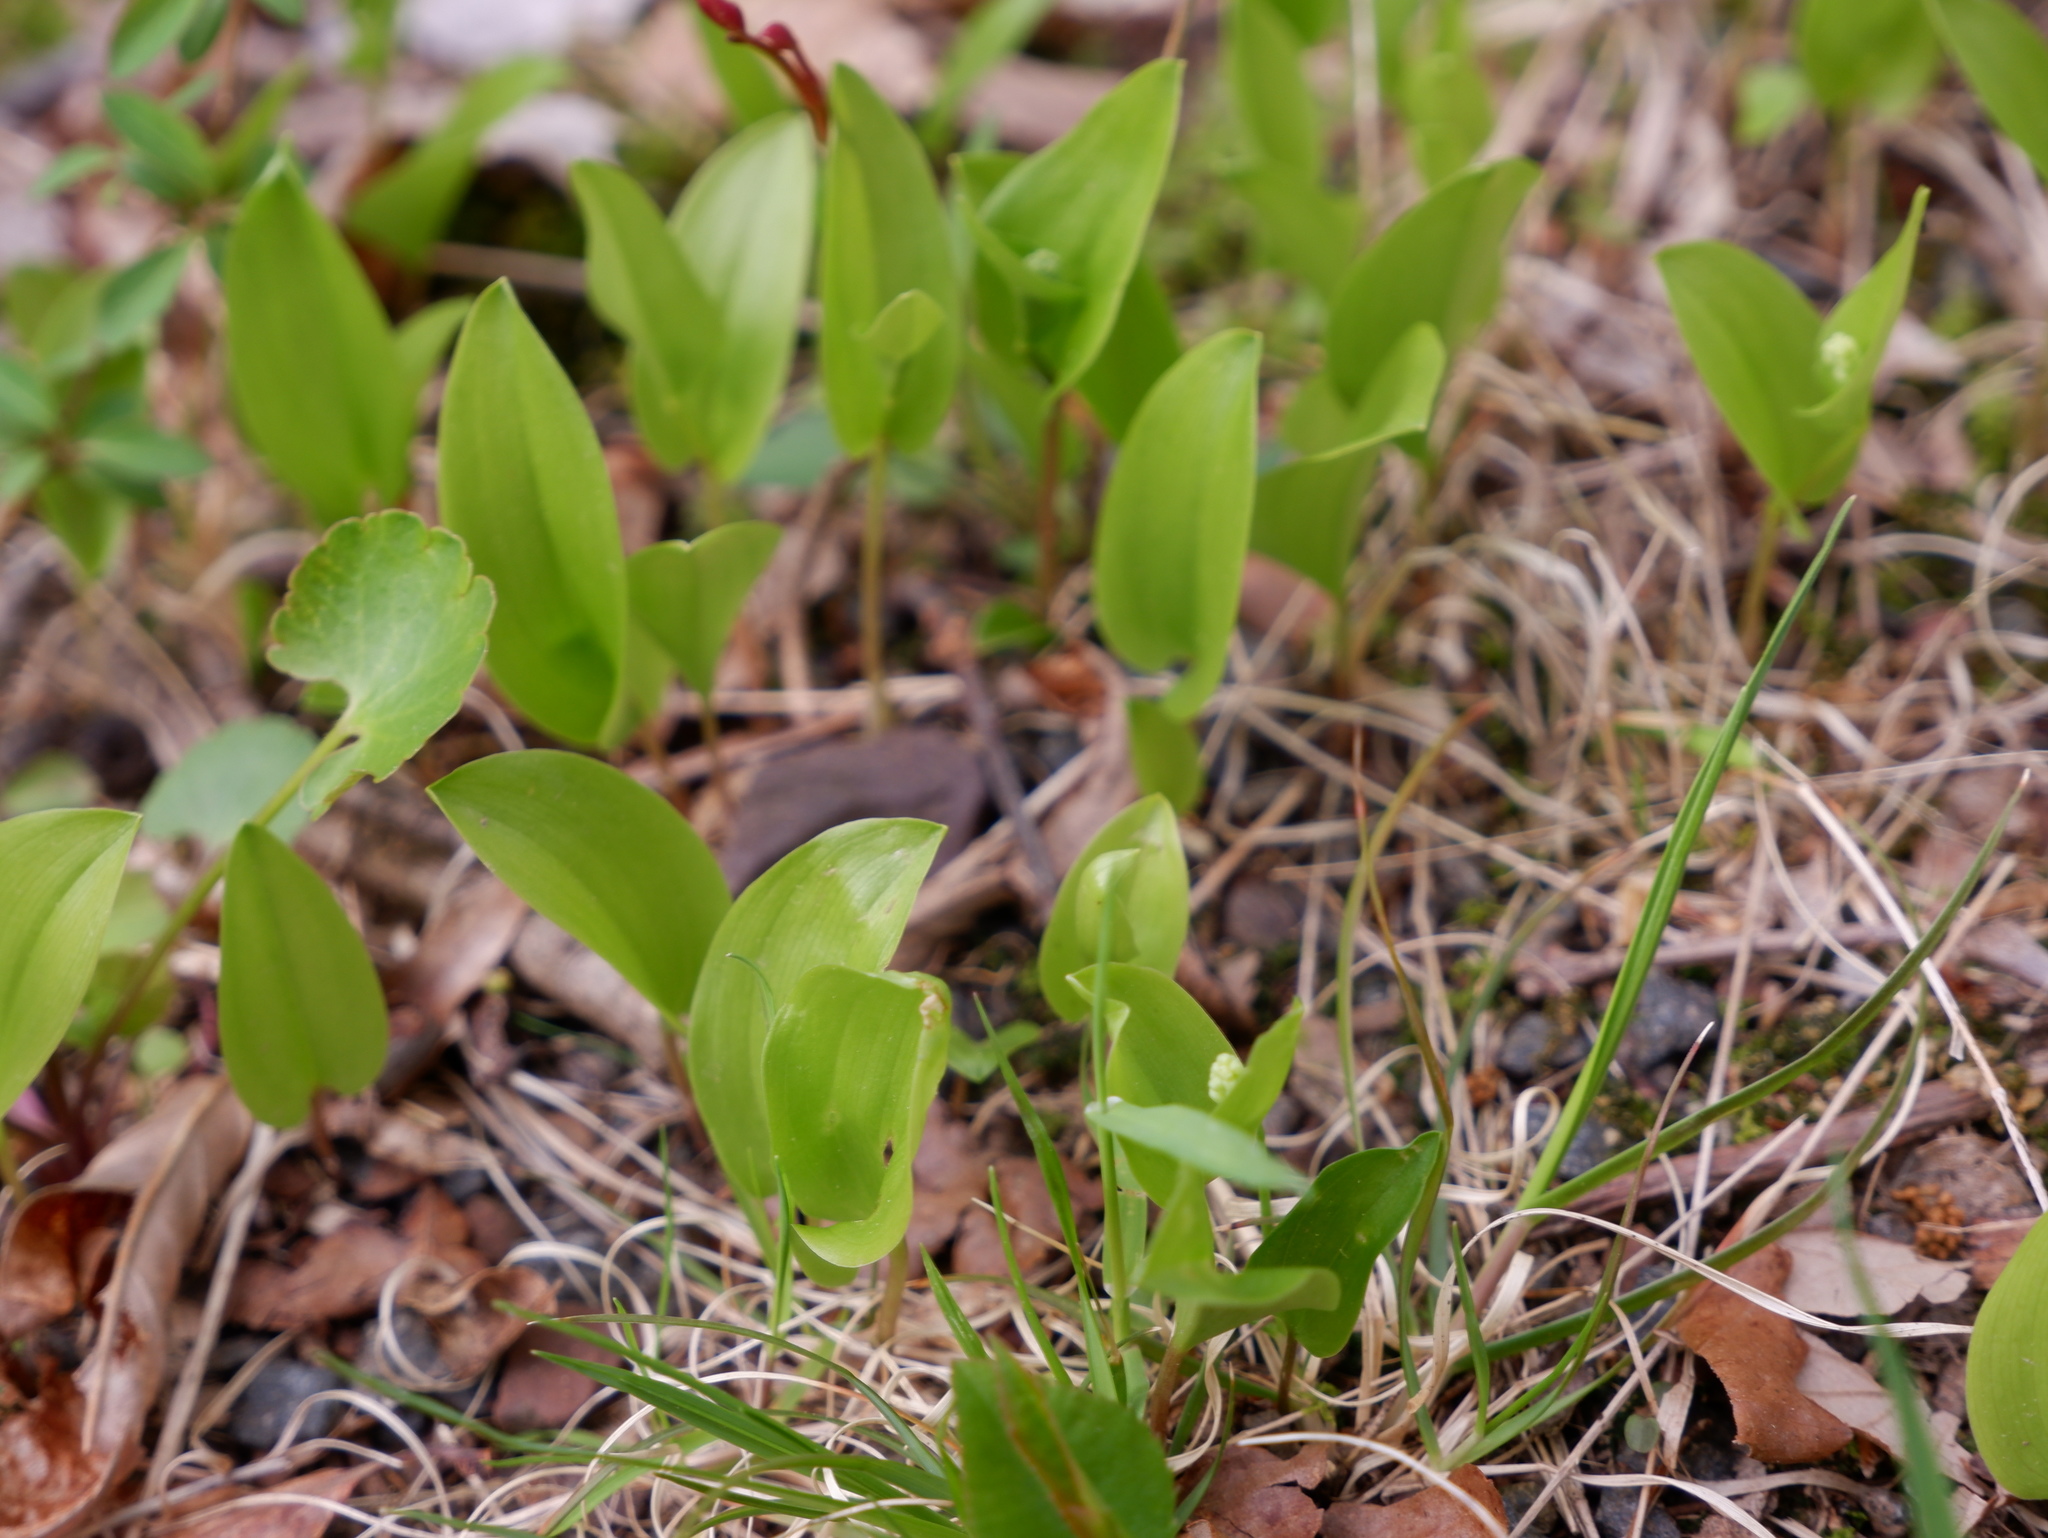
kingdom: Plantae
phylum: Tracheophyta
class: Liliopsida
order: Asparagales
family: Asparagaceae
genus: Maianthemum
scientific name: Maianthemum canadense
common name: False lily-of-the-valley
